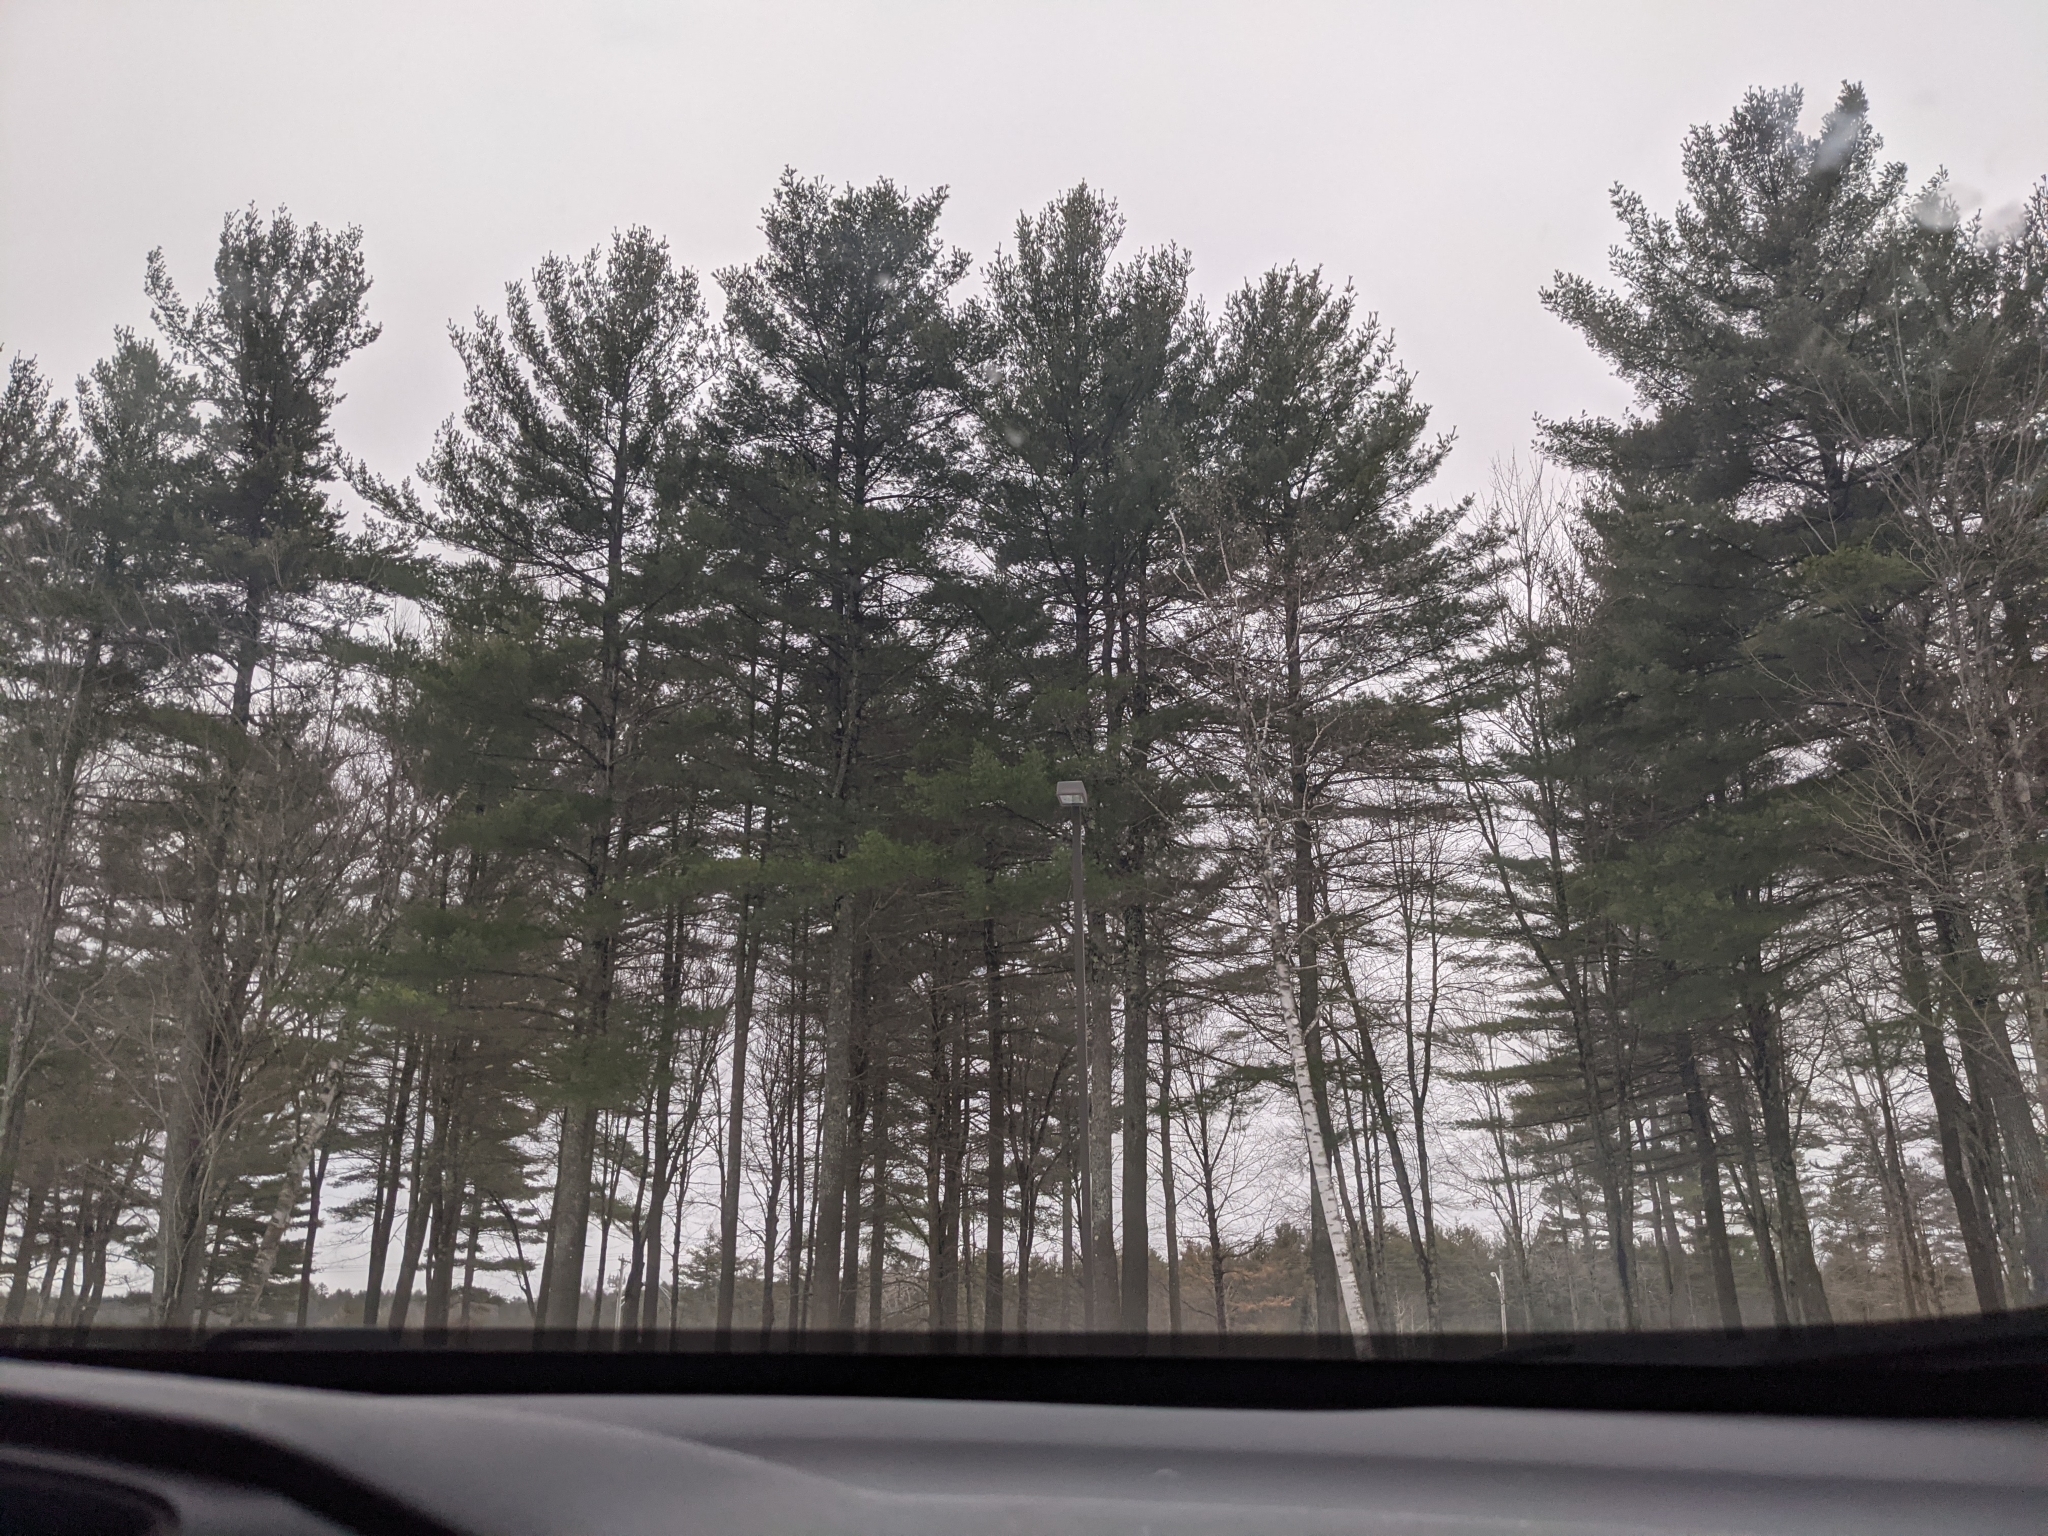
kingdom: Plantae
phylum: Tracheophyta
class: Pinopsida
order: Pinales
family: Pinaceae
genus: Pinus
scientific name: Pinus strobus
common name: Weymouth pine
